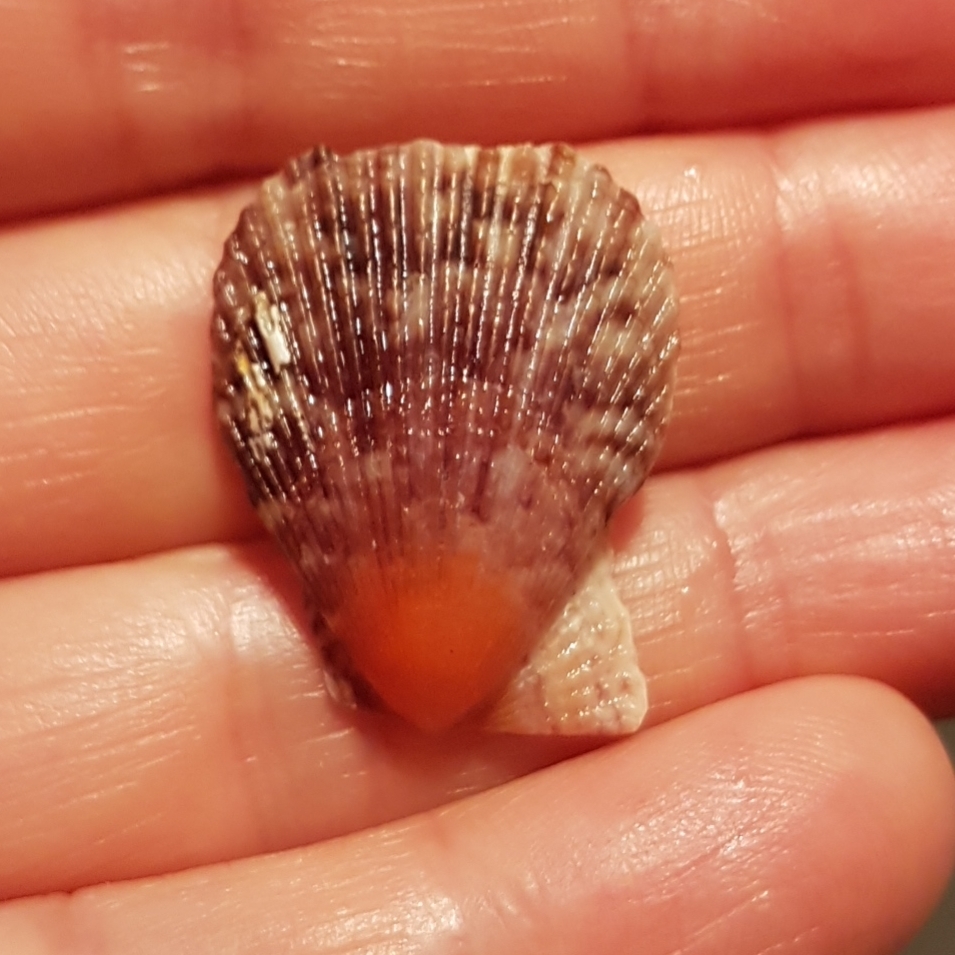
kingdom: Animalia
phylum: Mollusca
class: Bivalvia
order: Pectinida
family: Pectinidae
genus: Mimachlamys
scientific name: Mimachlamys varia
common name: Variegated scallop
